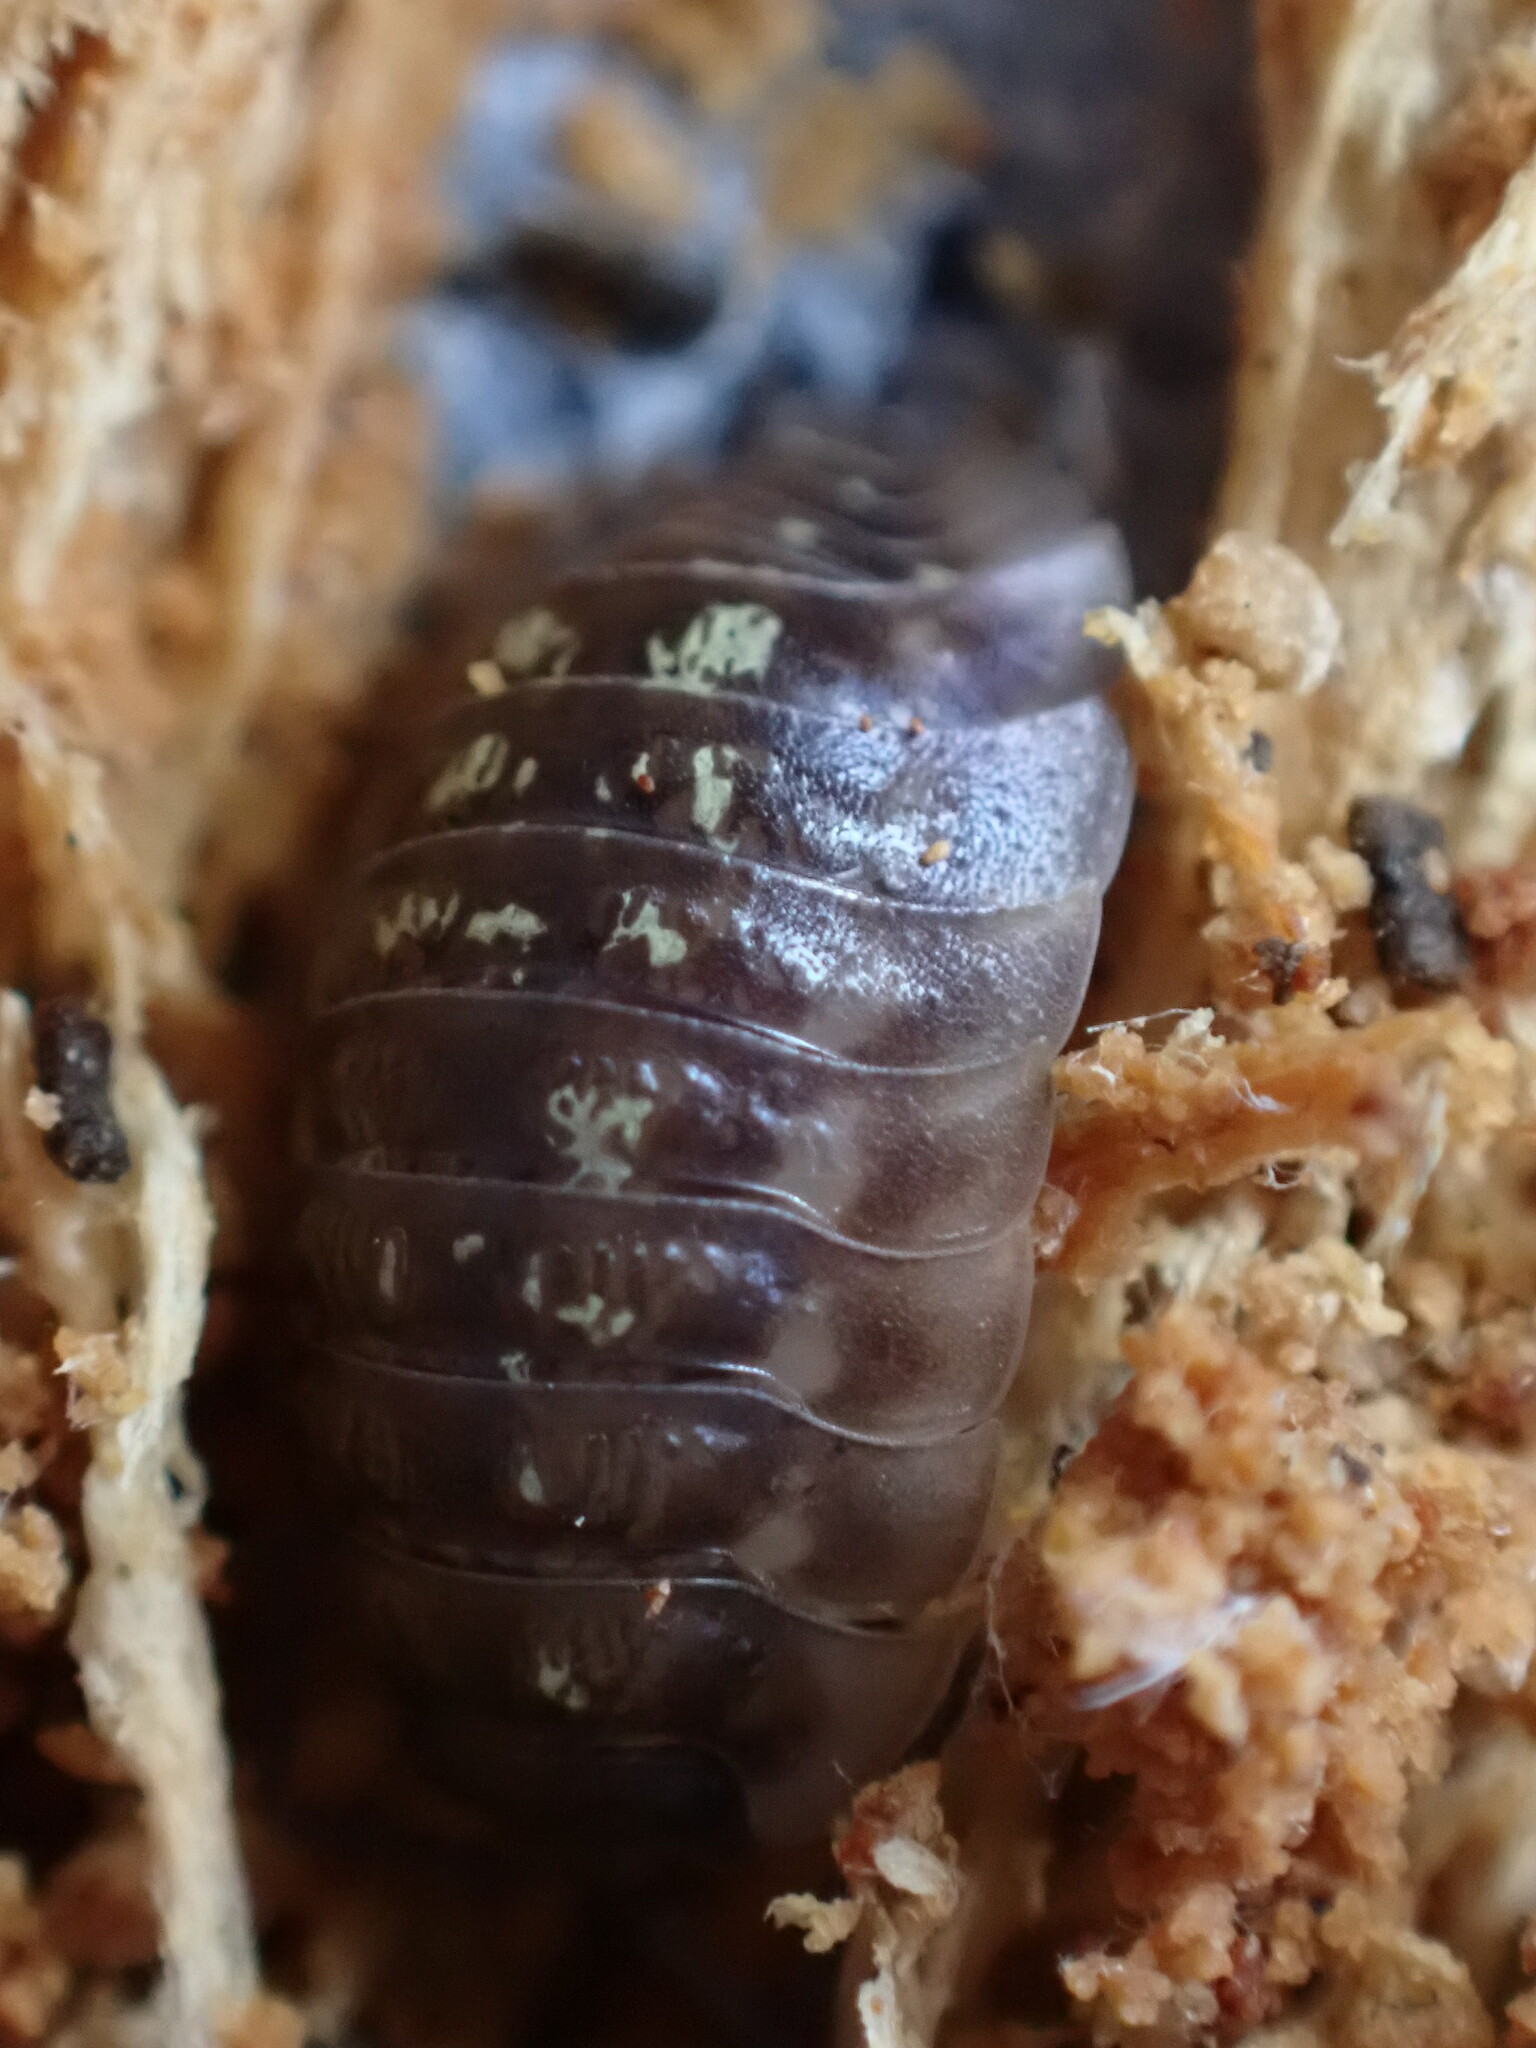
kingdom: Animalia
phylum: Arthropoda
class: Malacostraca
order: Isopoda
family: Oniscidae
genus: Oniscus
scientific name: Oniscus asellus
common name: Common shiny woodlouse
